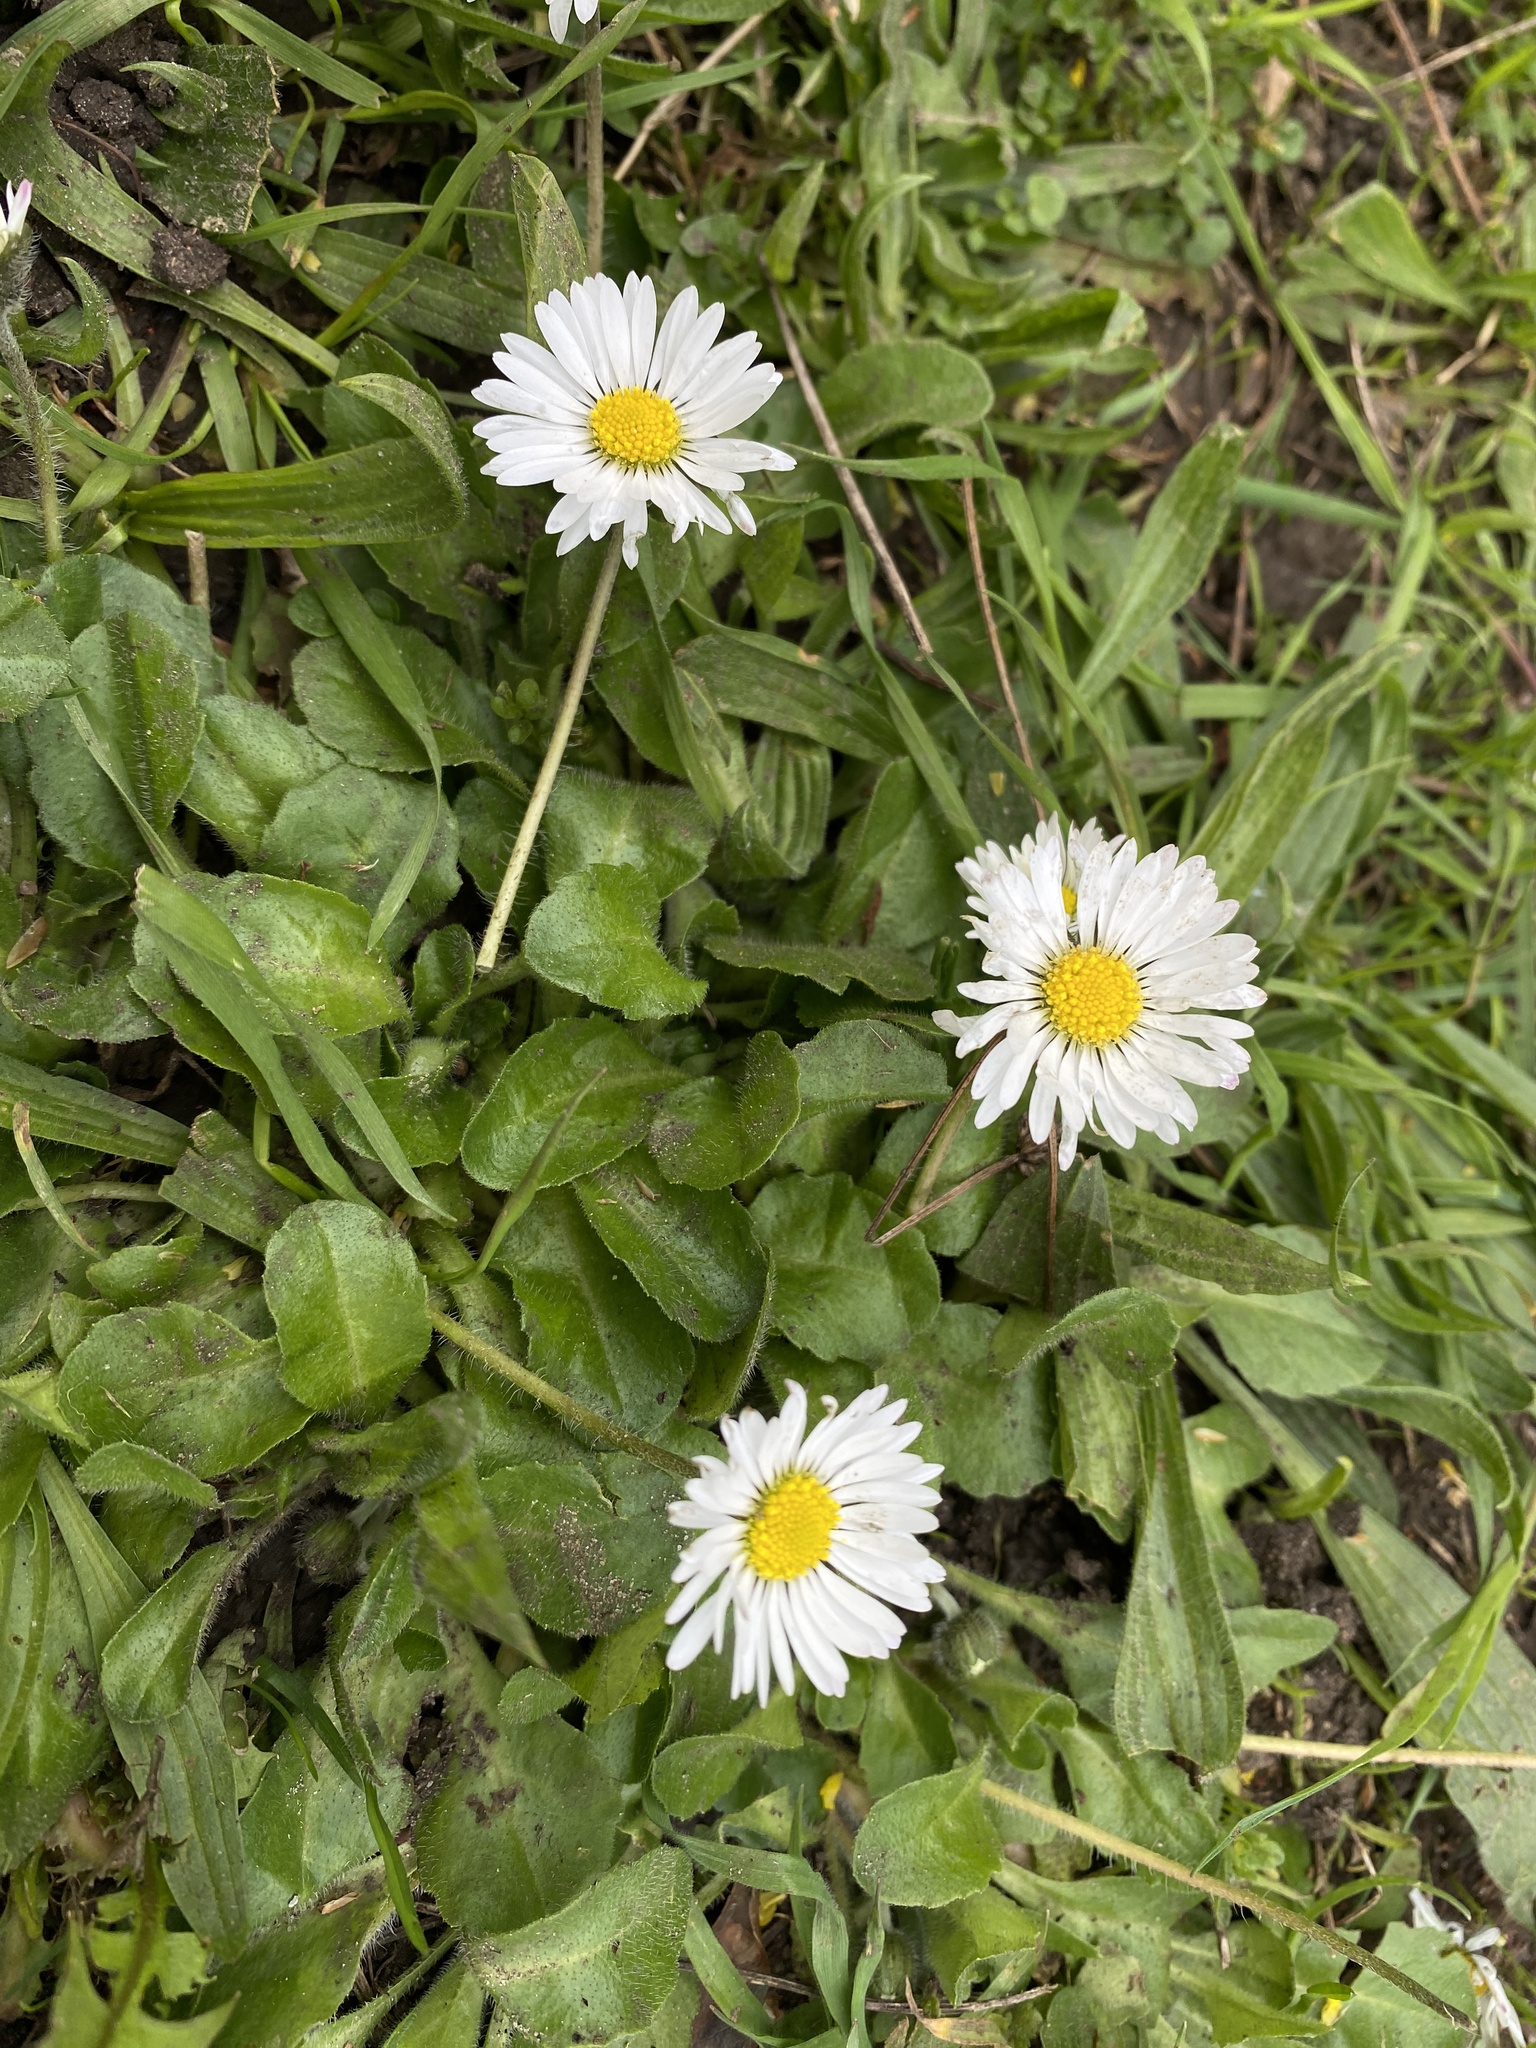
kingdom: Plantae
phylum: Tracheophyta
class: Magnoliopsida
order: Asterales
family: Asteraceae
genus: Bellis
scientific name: Bellis perennis
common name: Lawndaisy
